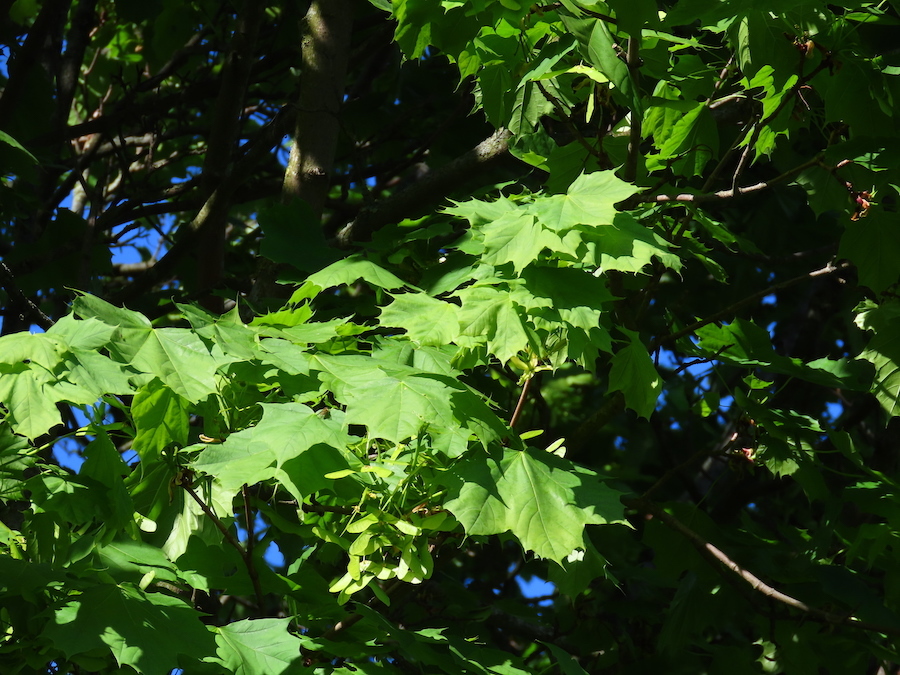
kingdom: Plantae
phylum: Tracheophyta
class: Magnoliopsida
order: Sapindales
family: Sapindaceae
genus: Acer
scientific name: Acer platanoides
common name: Norway maple
